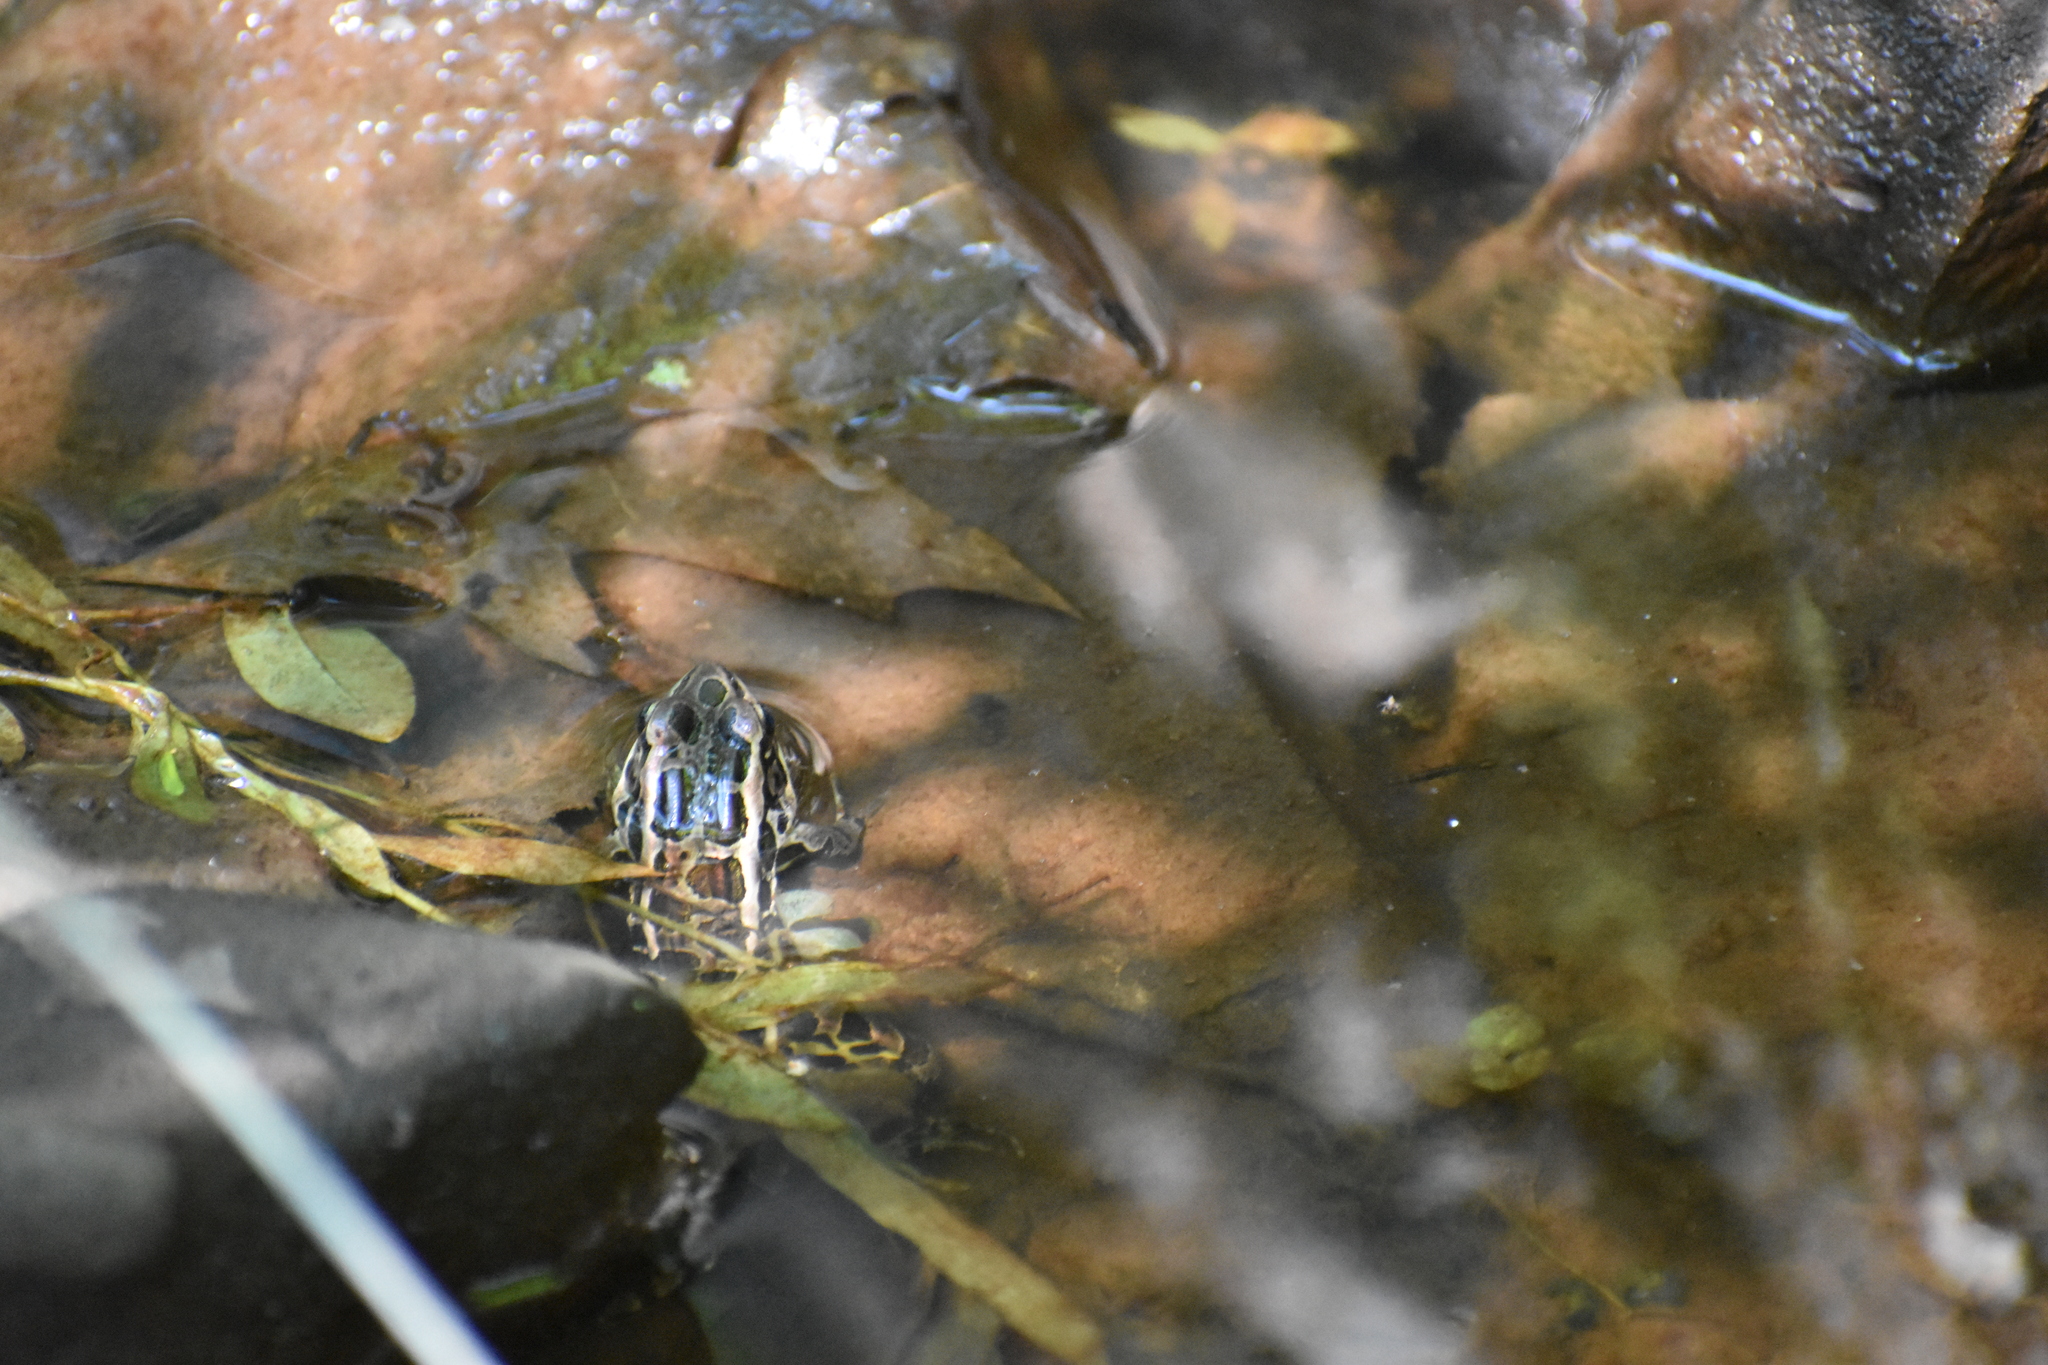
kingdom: Animalia
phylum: Chordata
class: Amphibia
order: Anura
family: Ranidae
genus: Lithobates
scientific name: Lithobates palustris
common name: Pickerel frog
